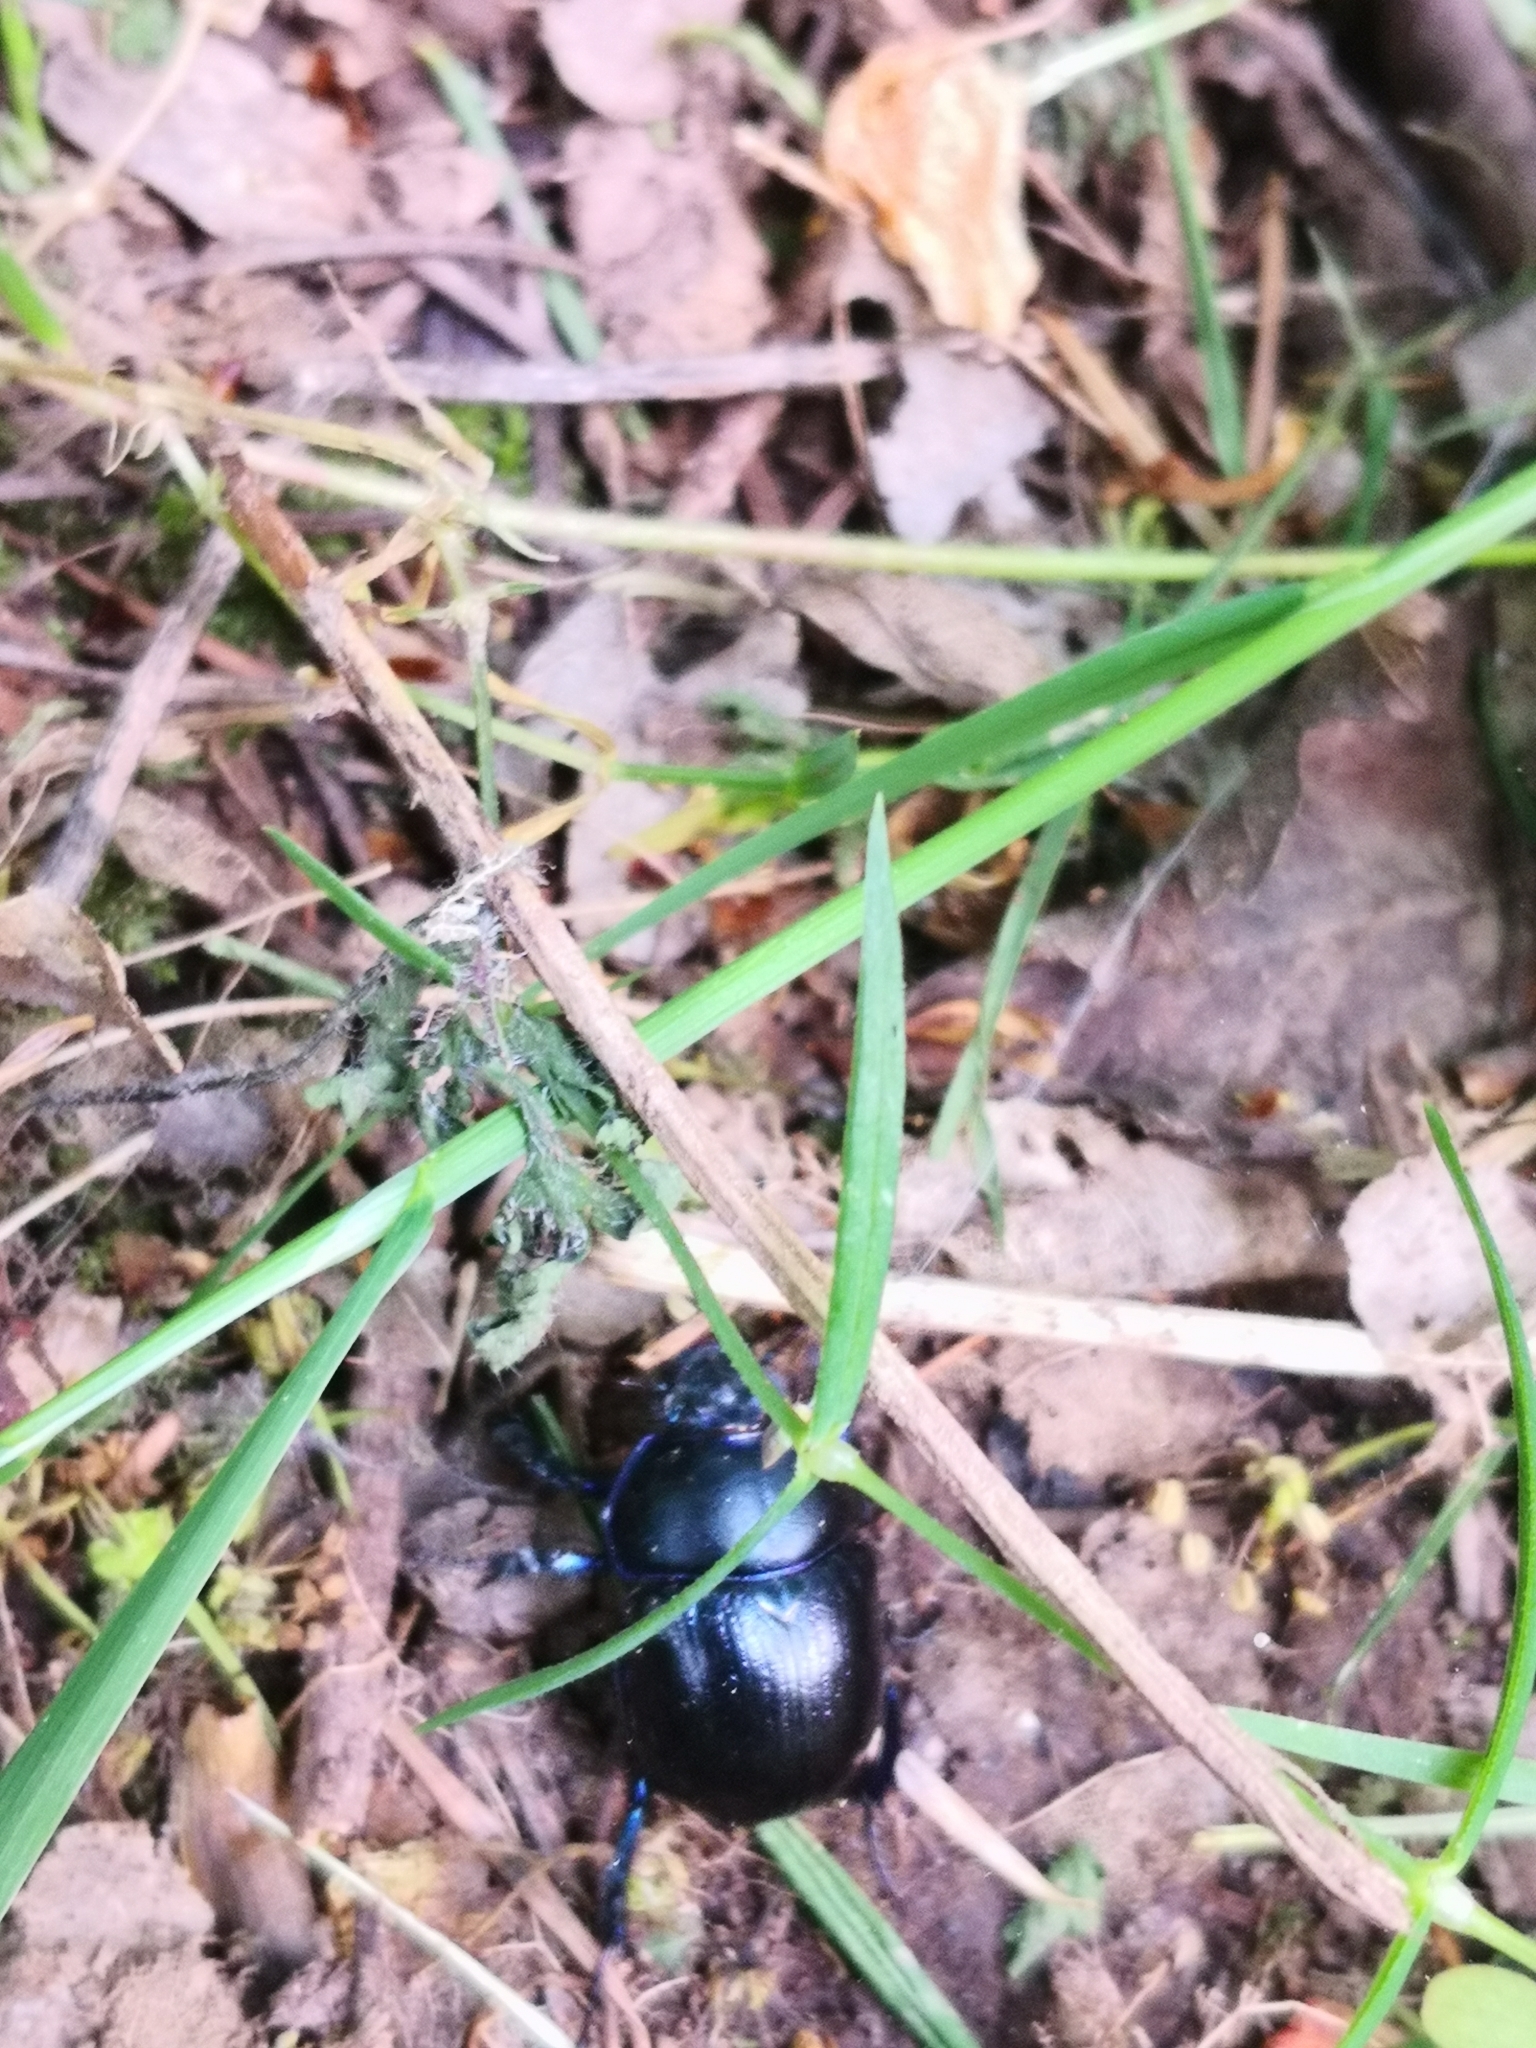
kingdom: Animalia
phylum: Arthropoda
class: Insecta
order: Coleoptera
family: Geotrupidae
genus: Anoplotrupes
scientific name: Anoplotrupes stercorosus
